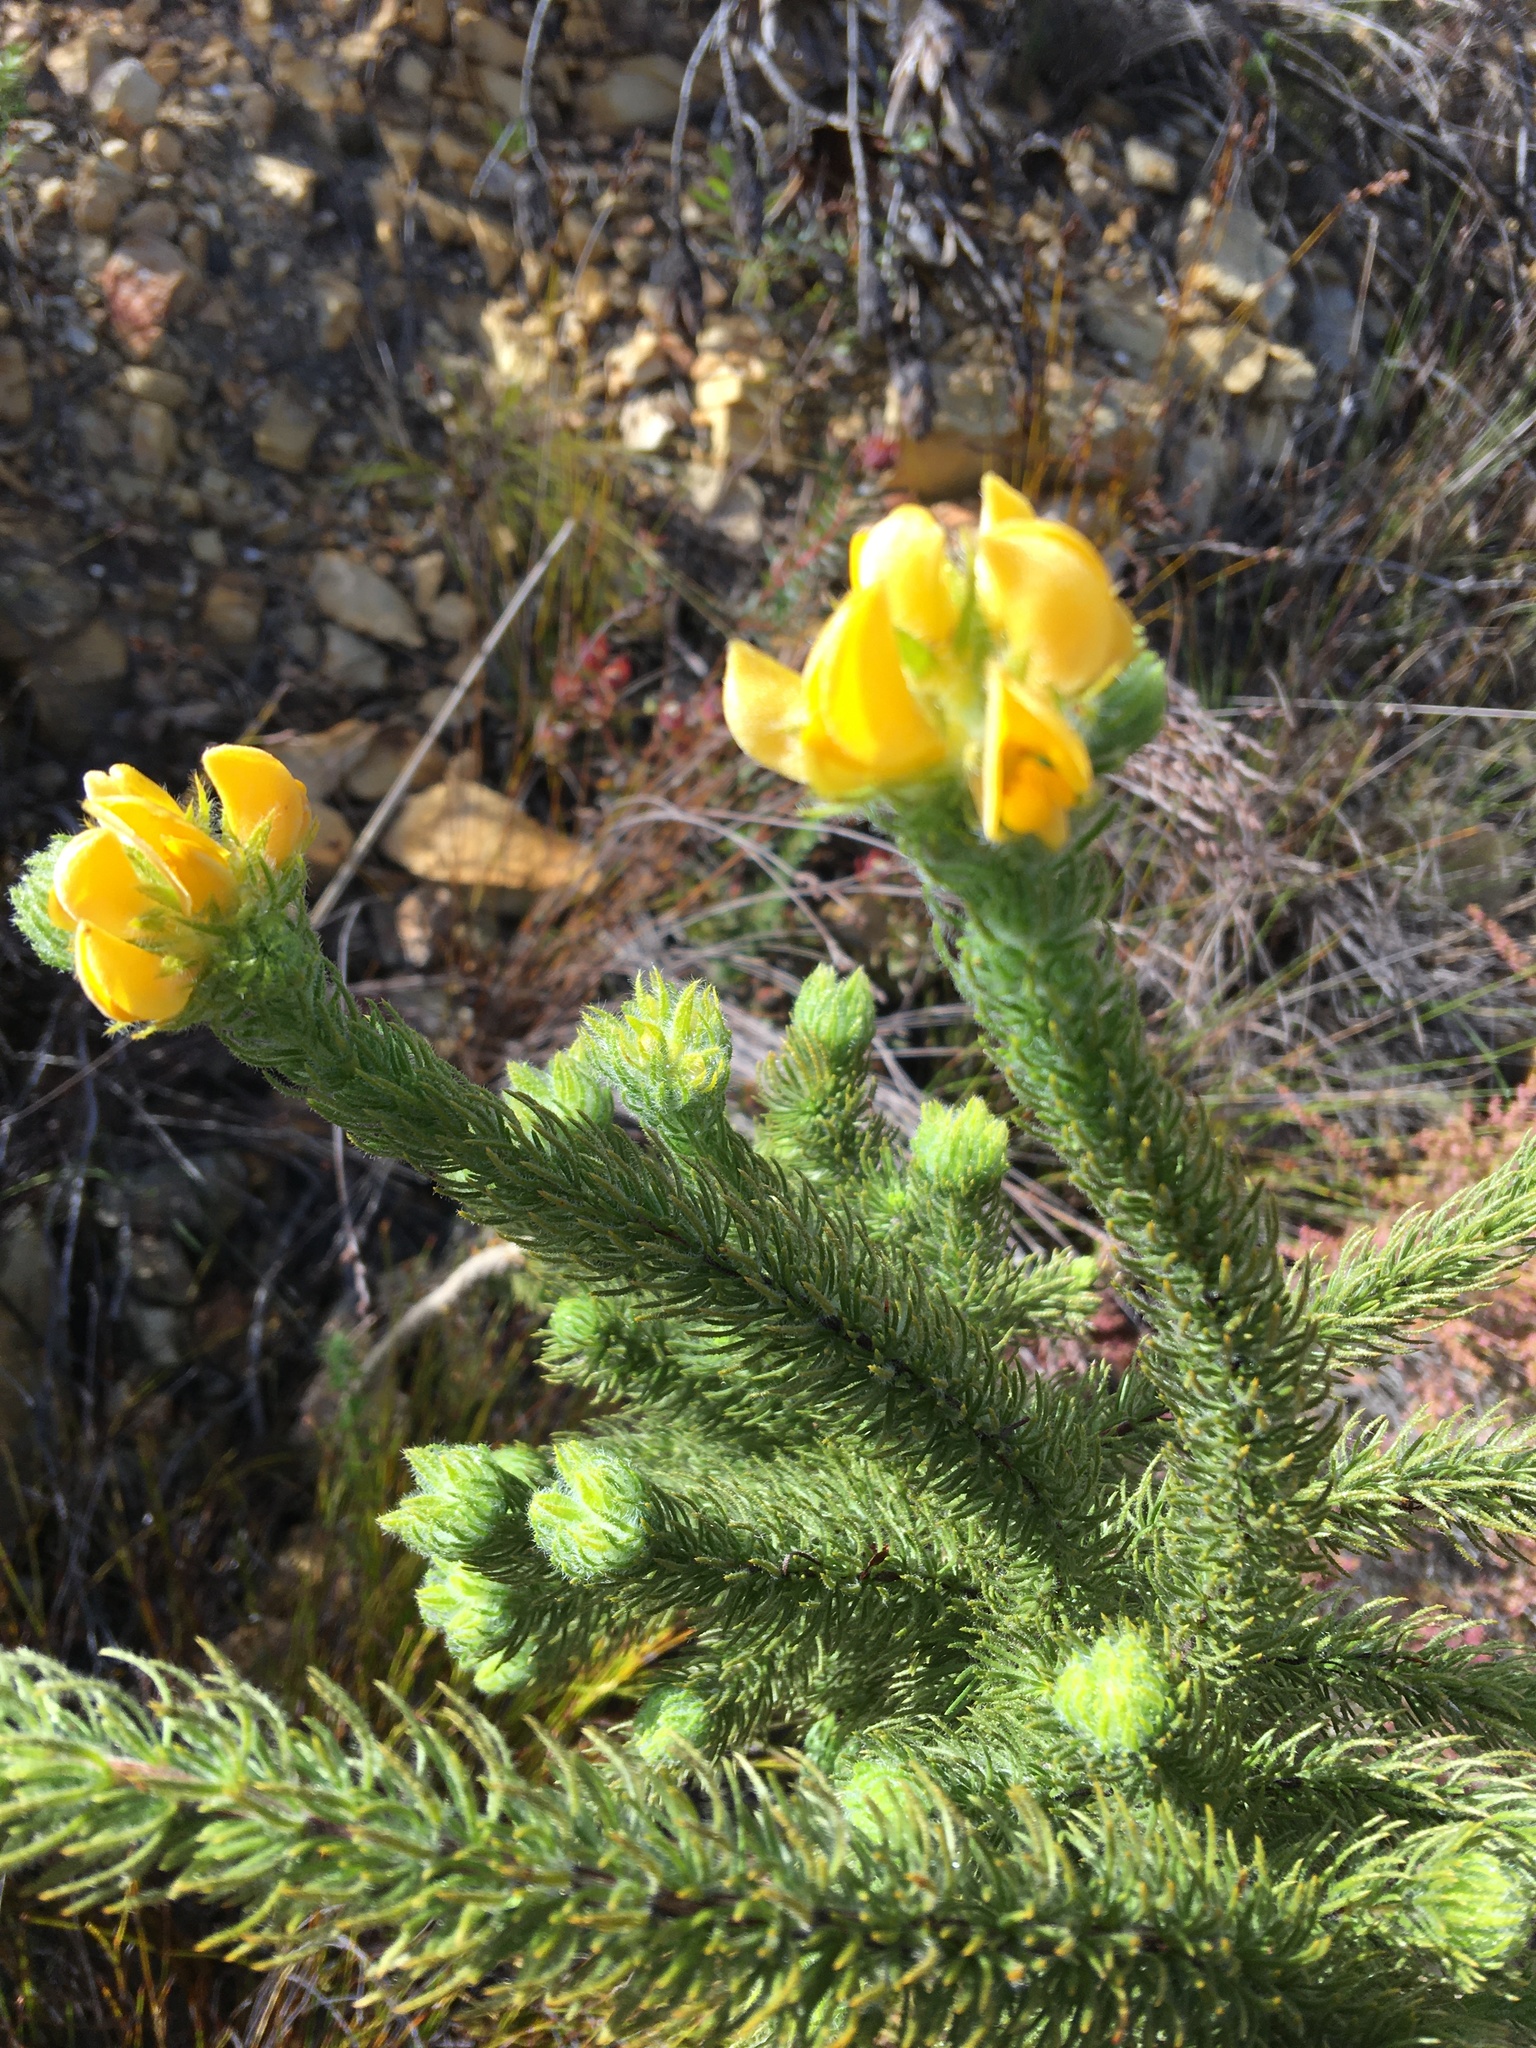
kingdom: Plantae
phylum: Tracheophyta
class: Magnoliopsida
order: Fabales
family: Fabaceae
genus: Aspalathus
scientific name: Aspalathus ciliaris
